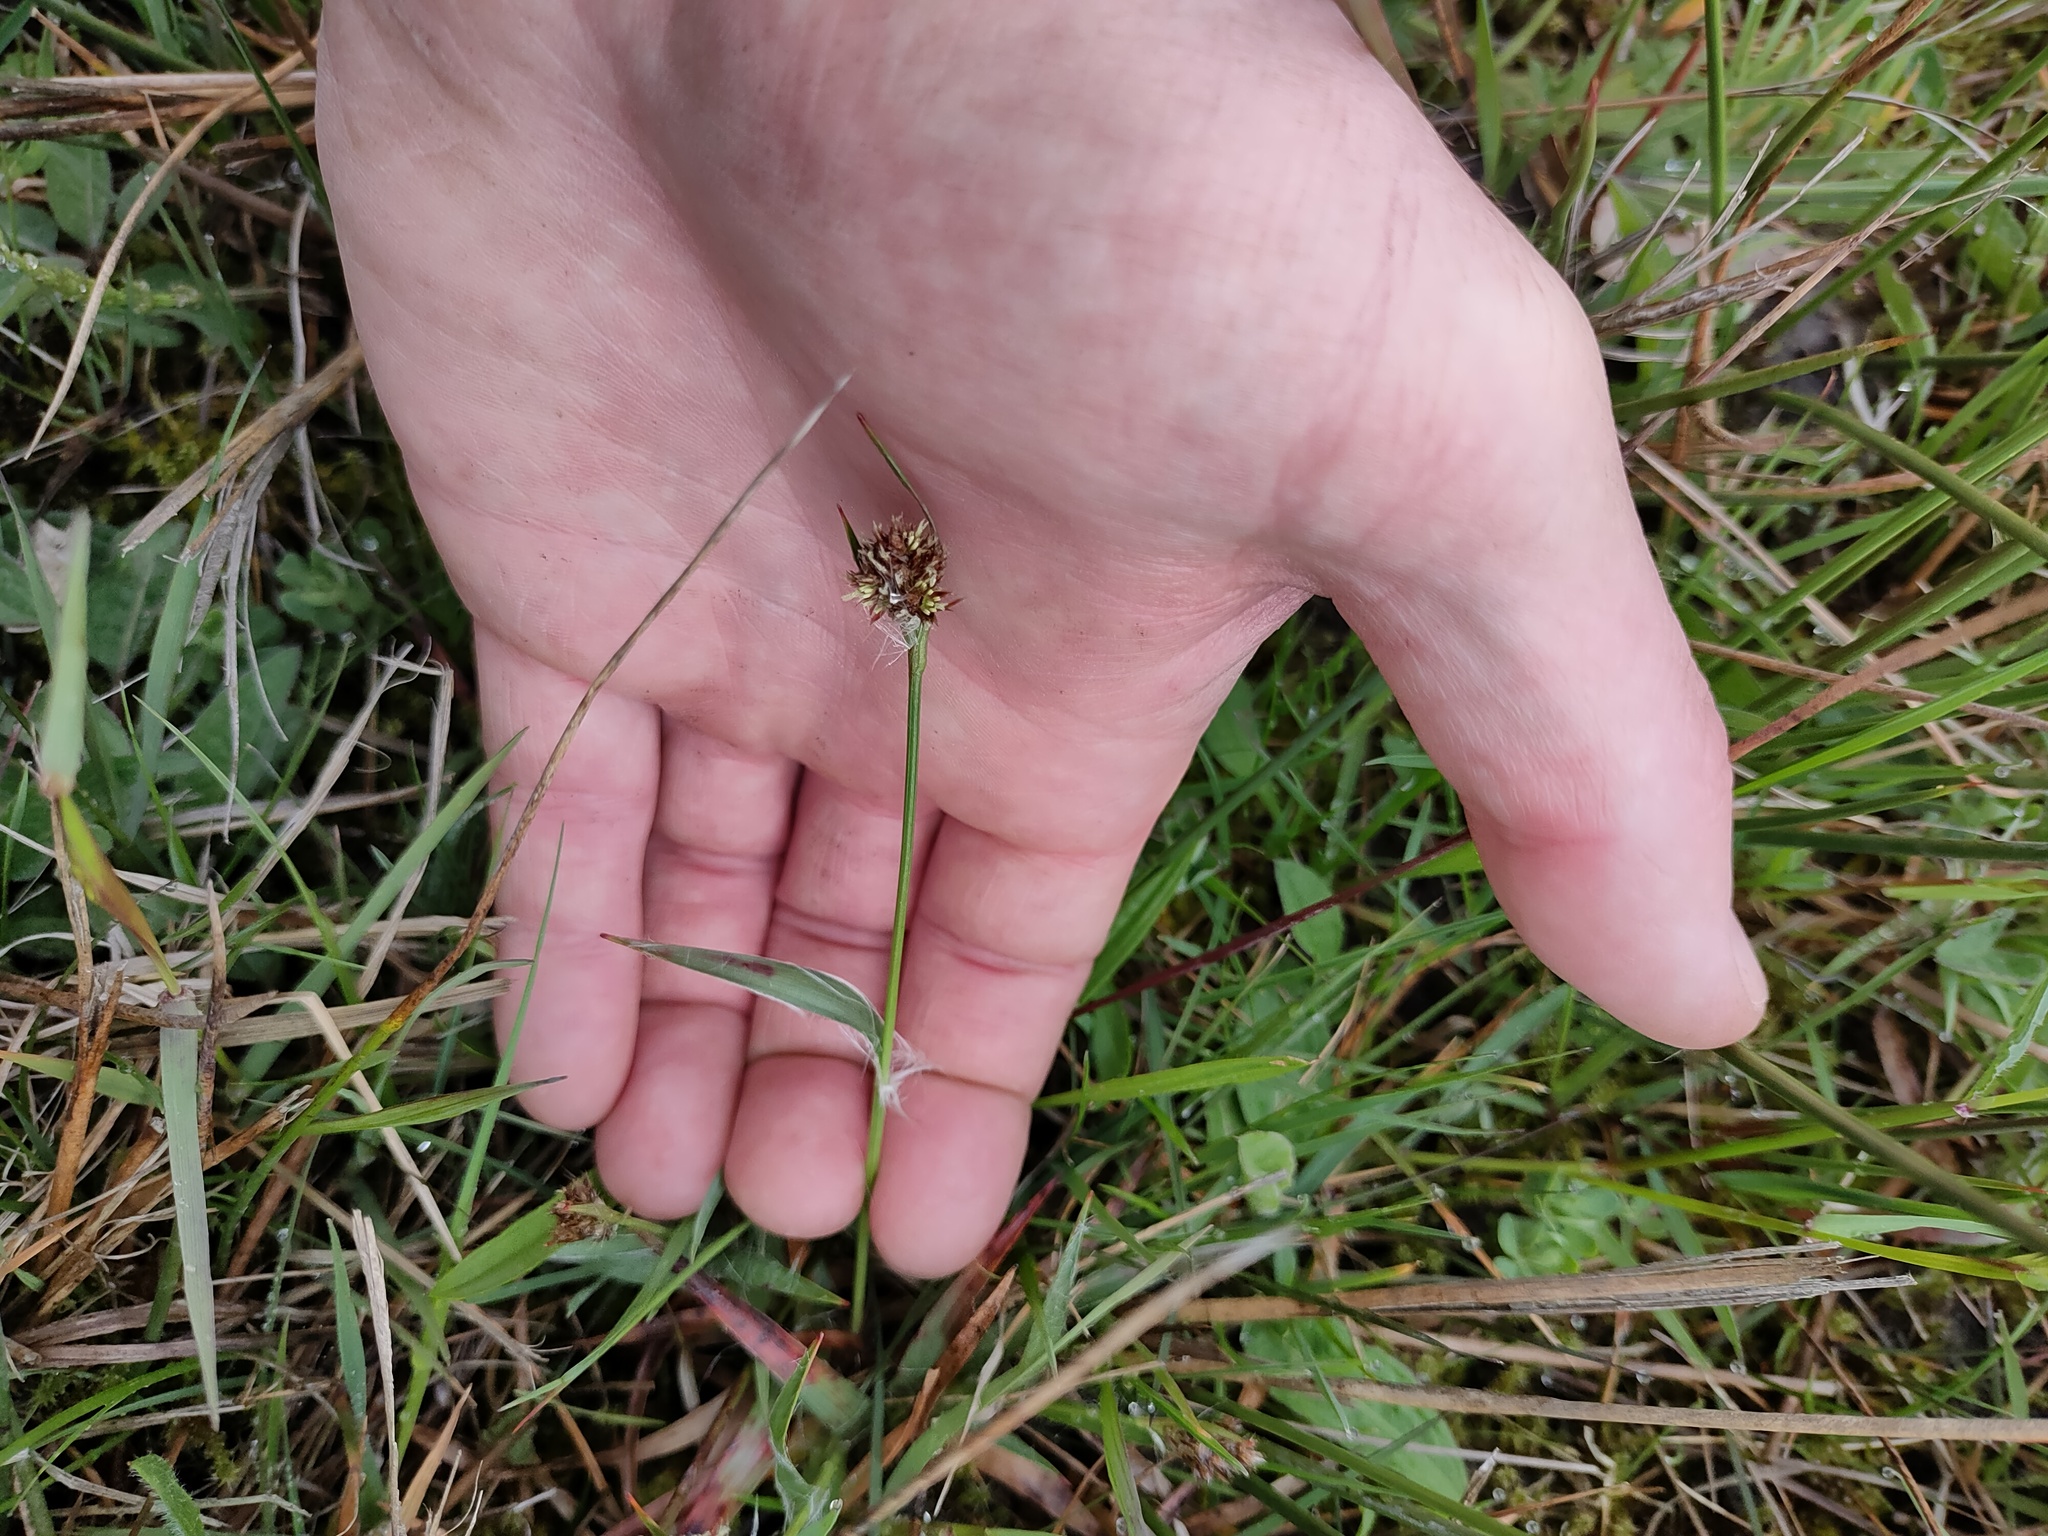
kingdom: Plantae
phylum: Tracheophyta
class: Liliopsida
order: Poales
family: Juncaceae
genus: Luzula
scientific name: Luzula campestris
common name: Field wood-rush
